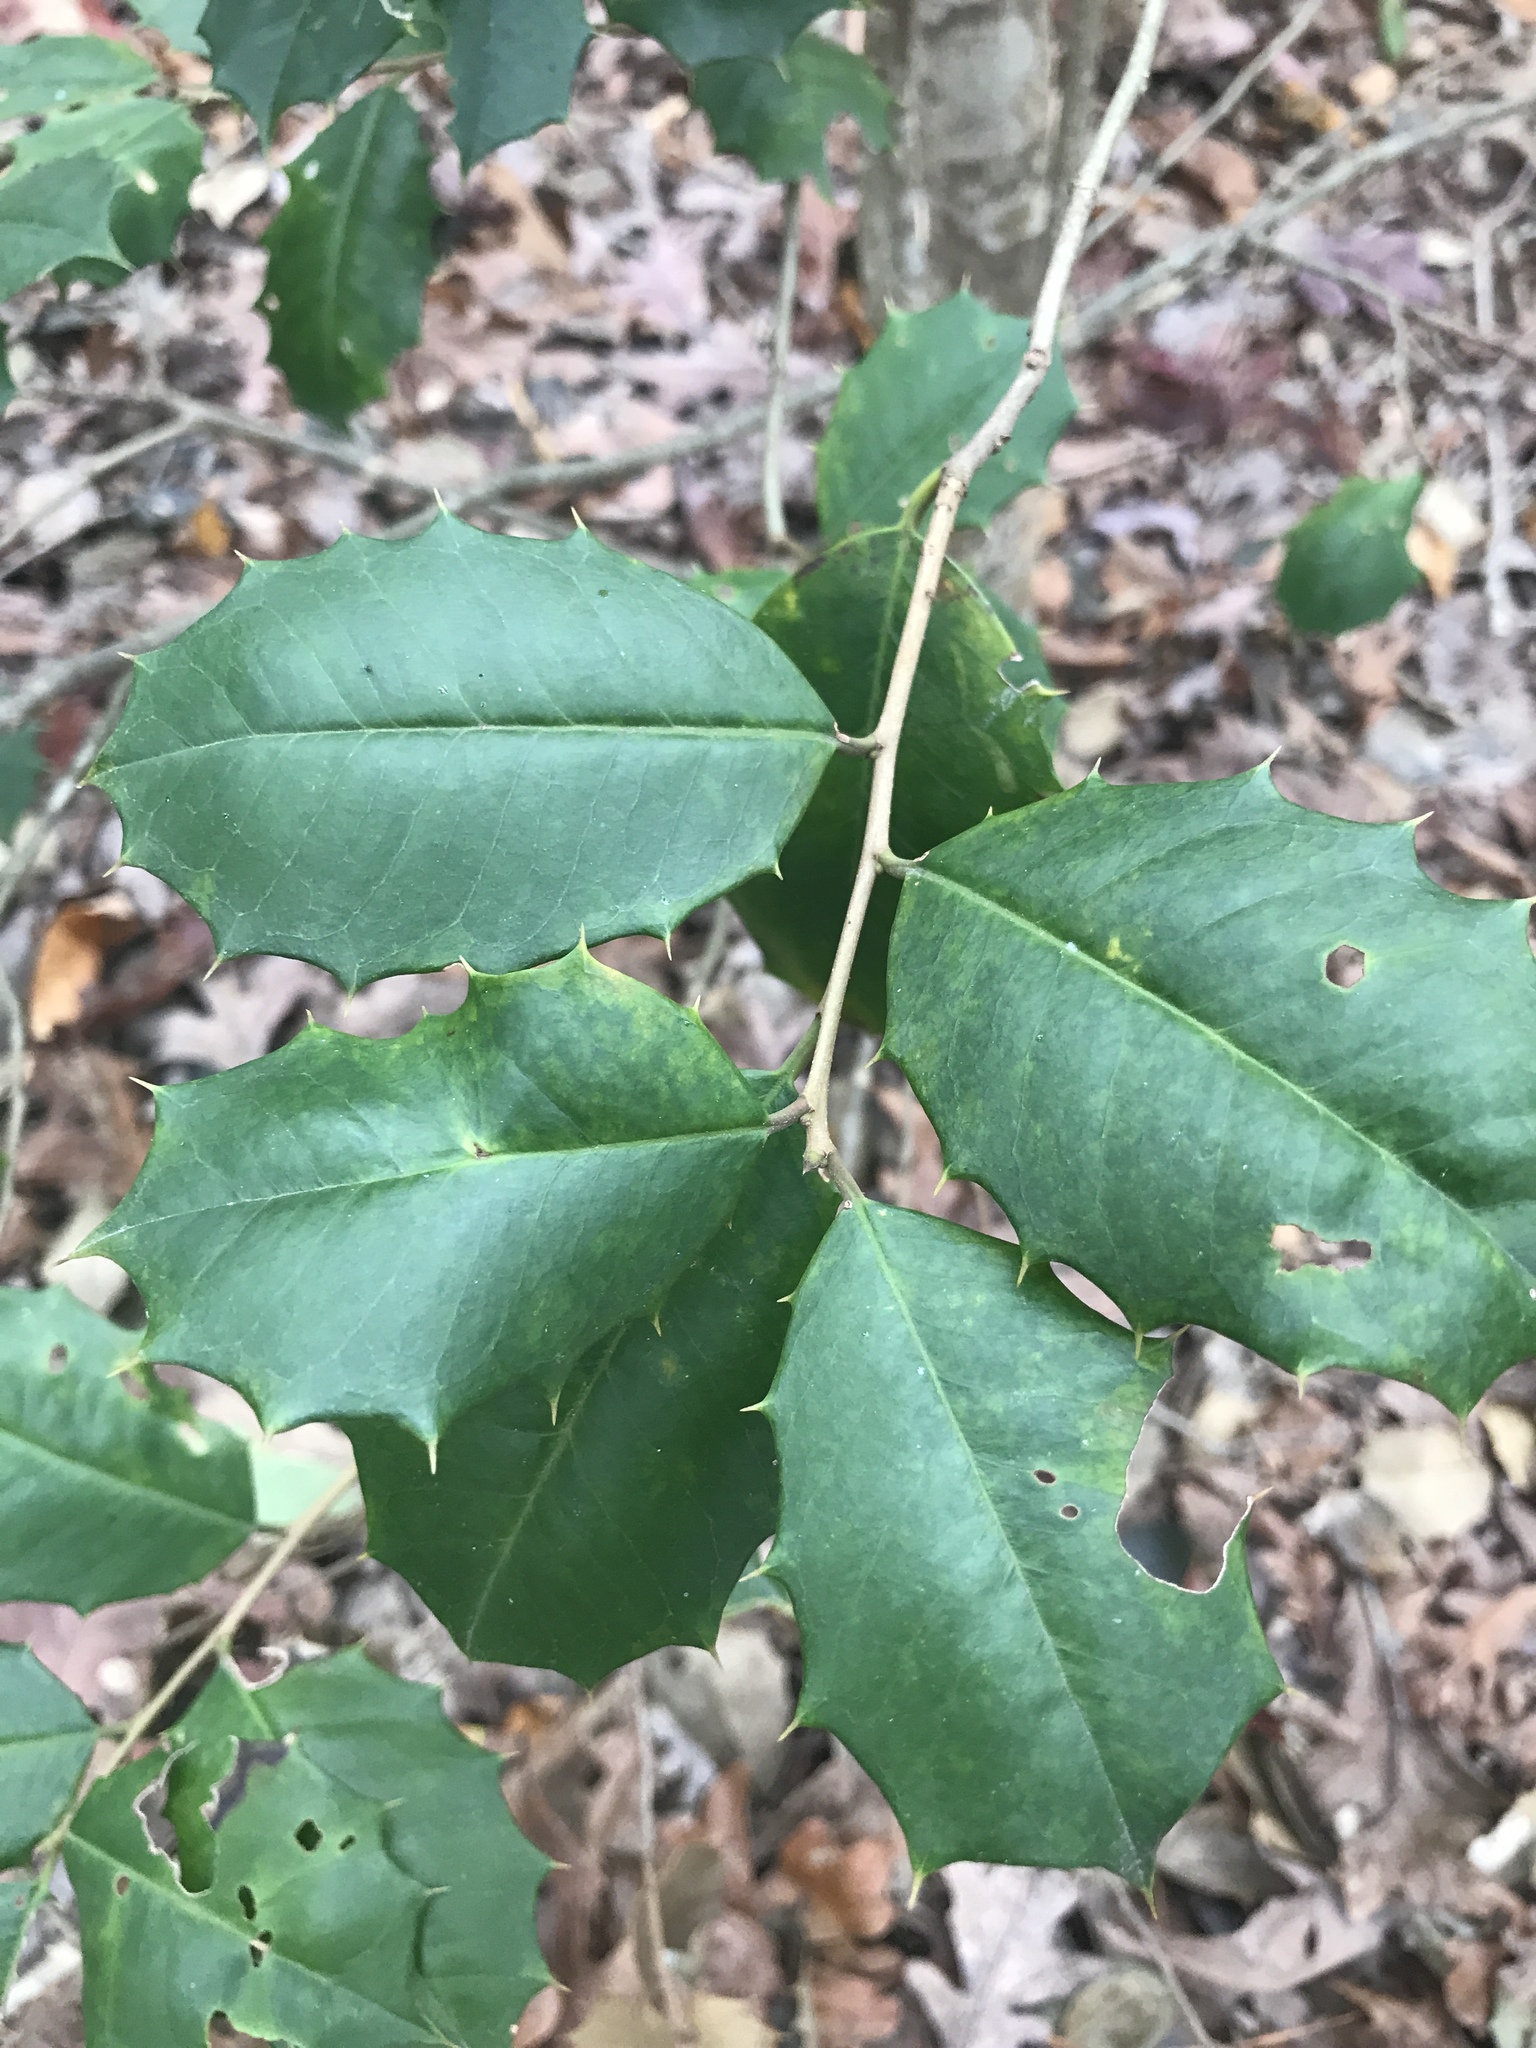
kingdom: Plantae
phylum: Tracheophyta
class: Magnoliopsida
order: Aquifoliales
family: Aquifoliaceae
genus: Ilex
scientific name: Ilex opaca
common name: American holly
